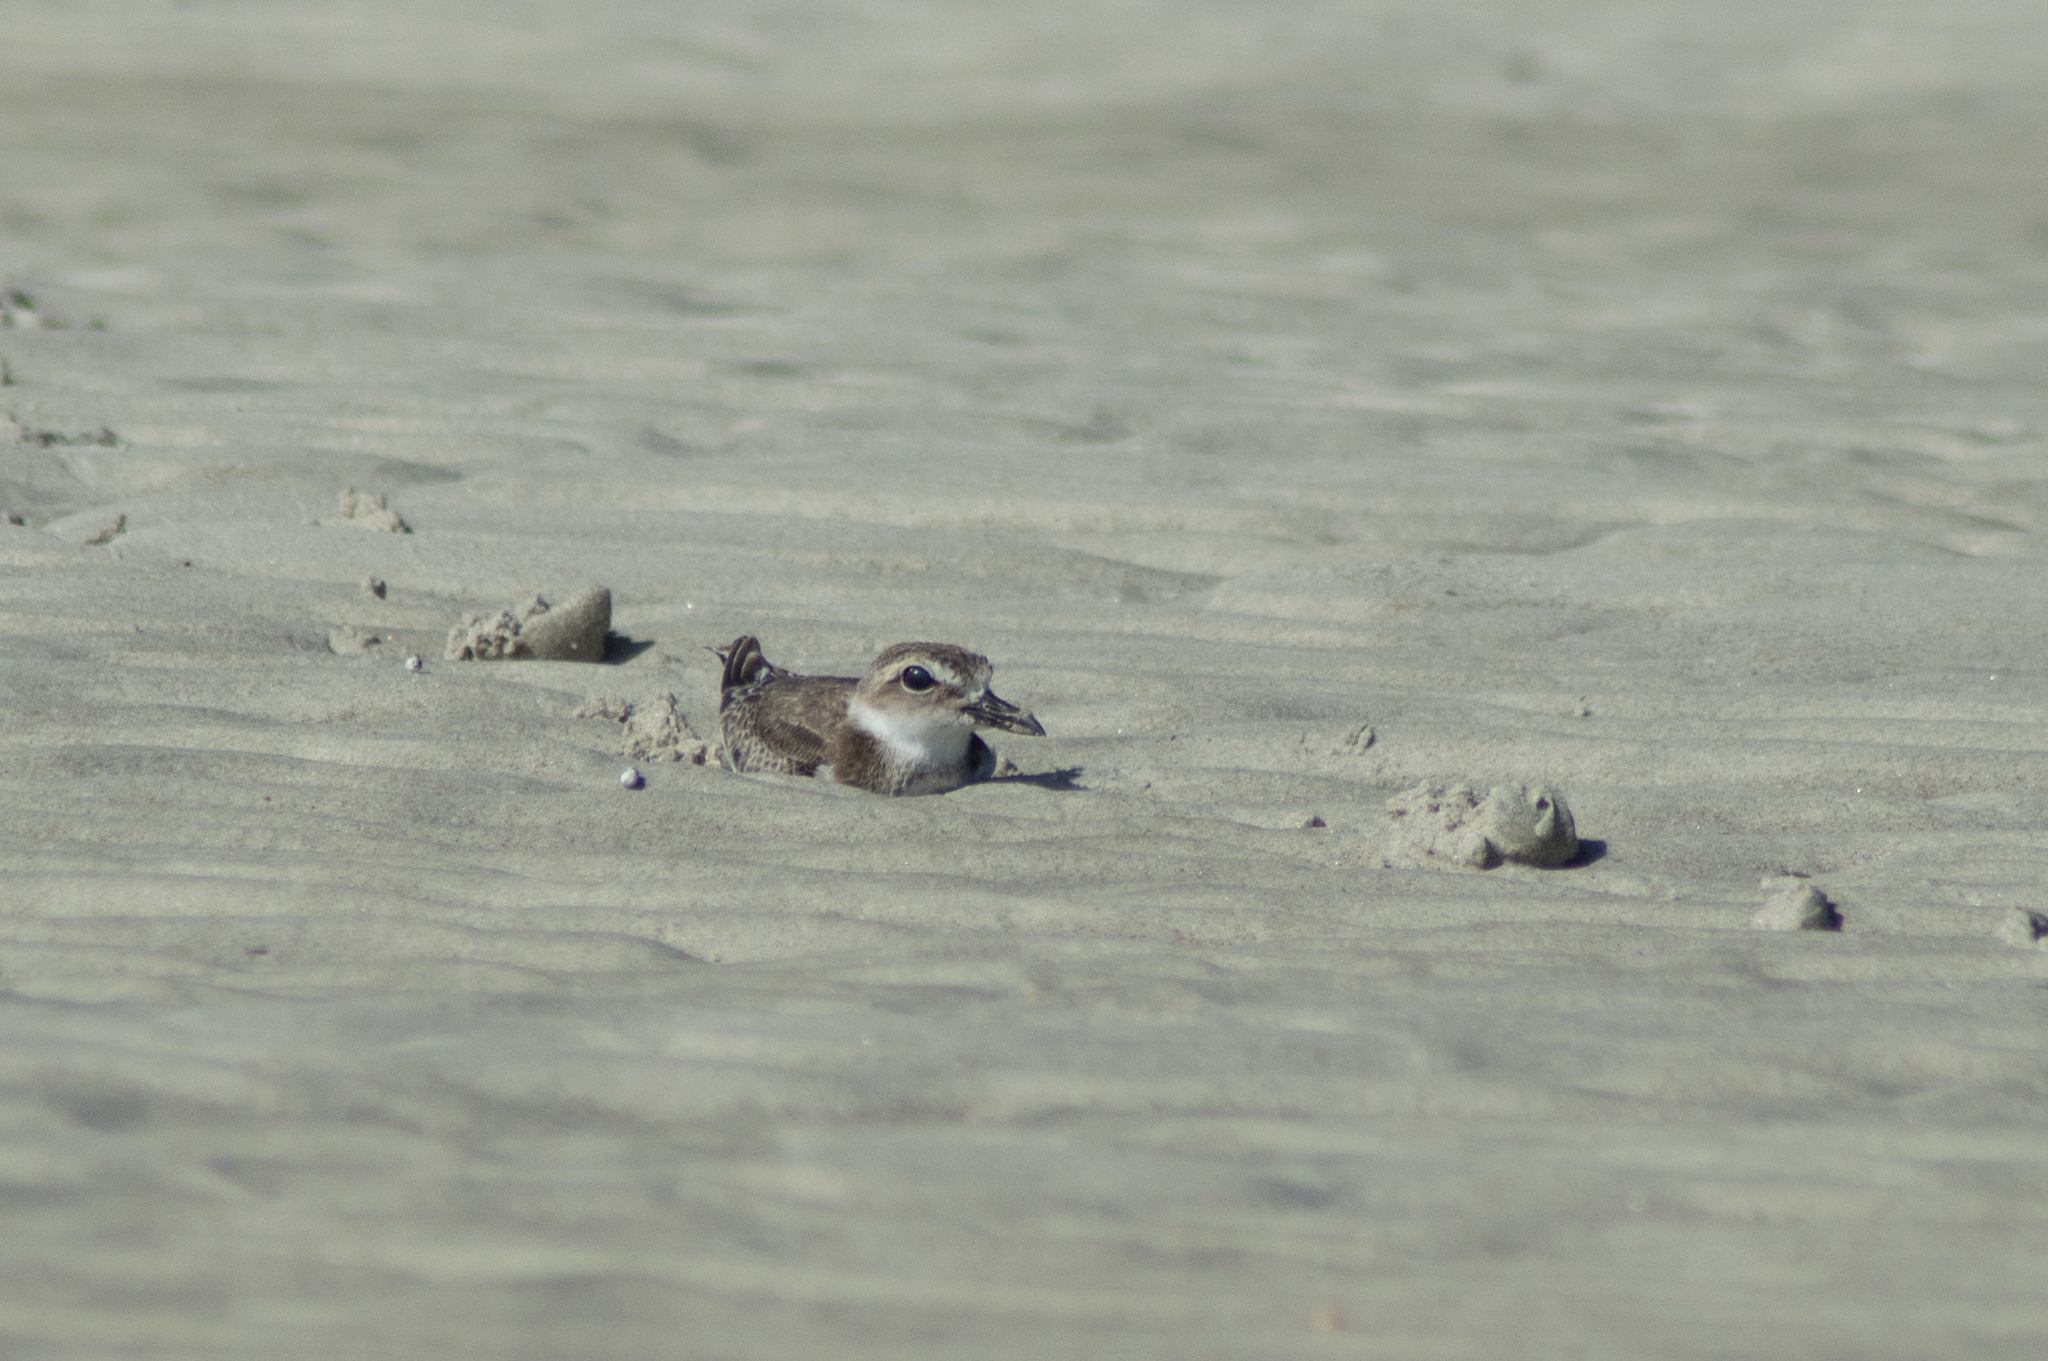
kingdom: Animalia
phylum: Chordata
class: Aves
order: Charadriiformes
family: Charadriidae
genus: Anarhynchus
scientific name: Anarhynchus
